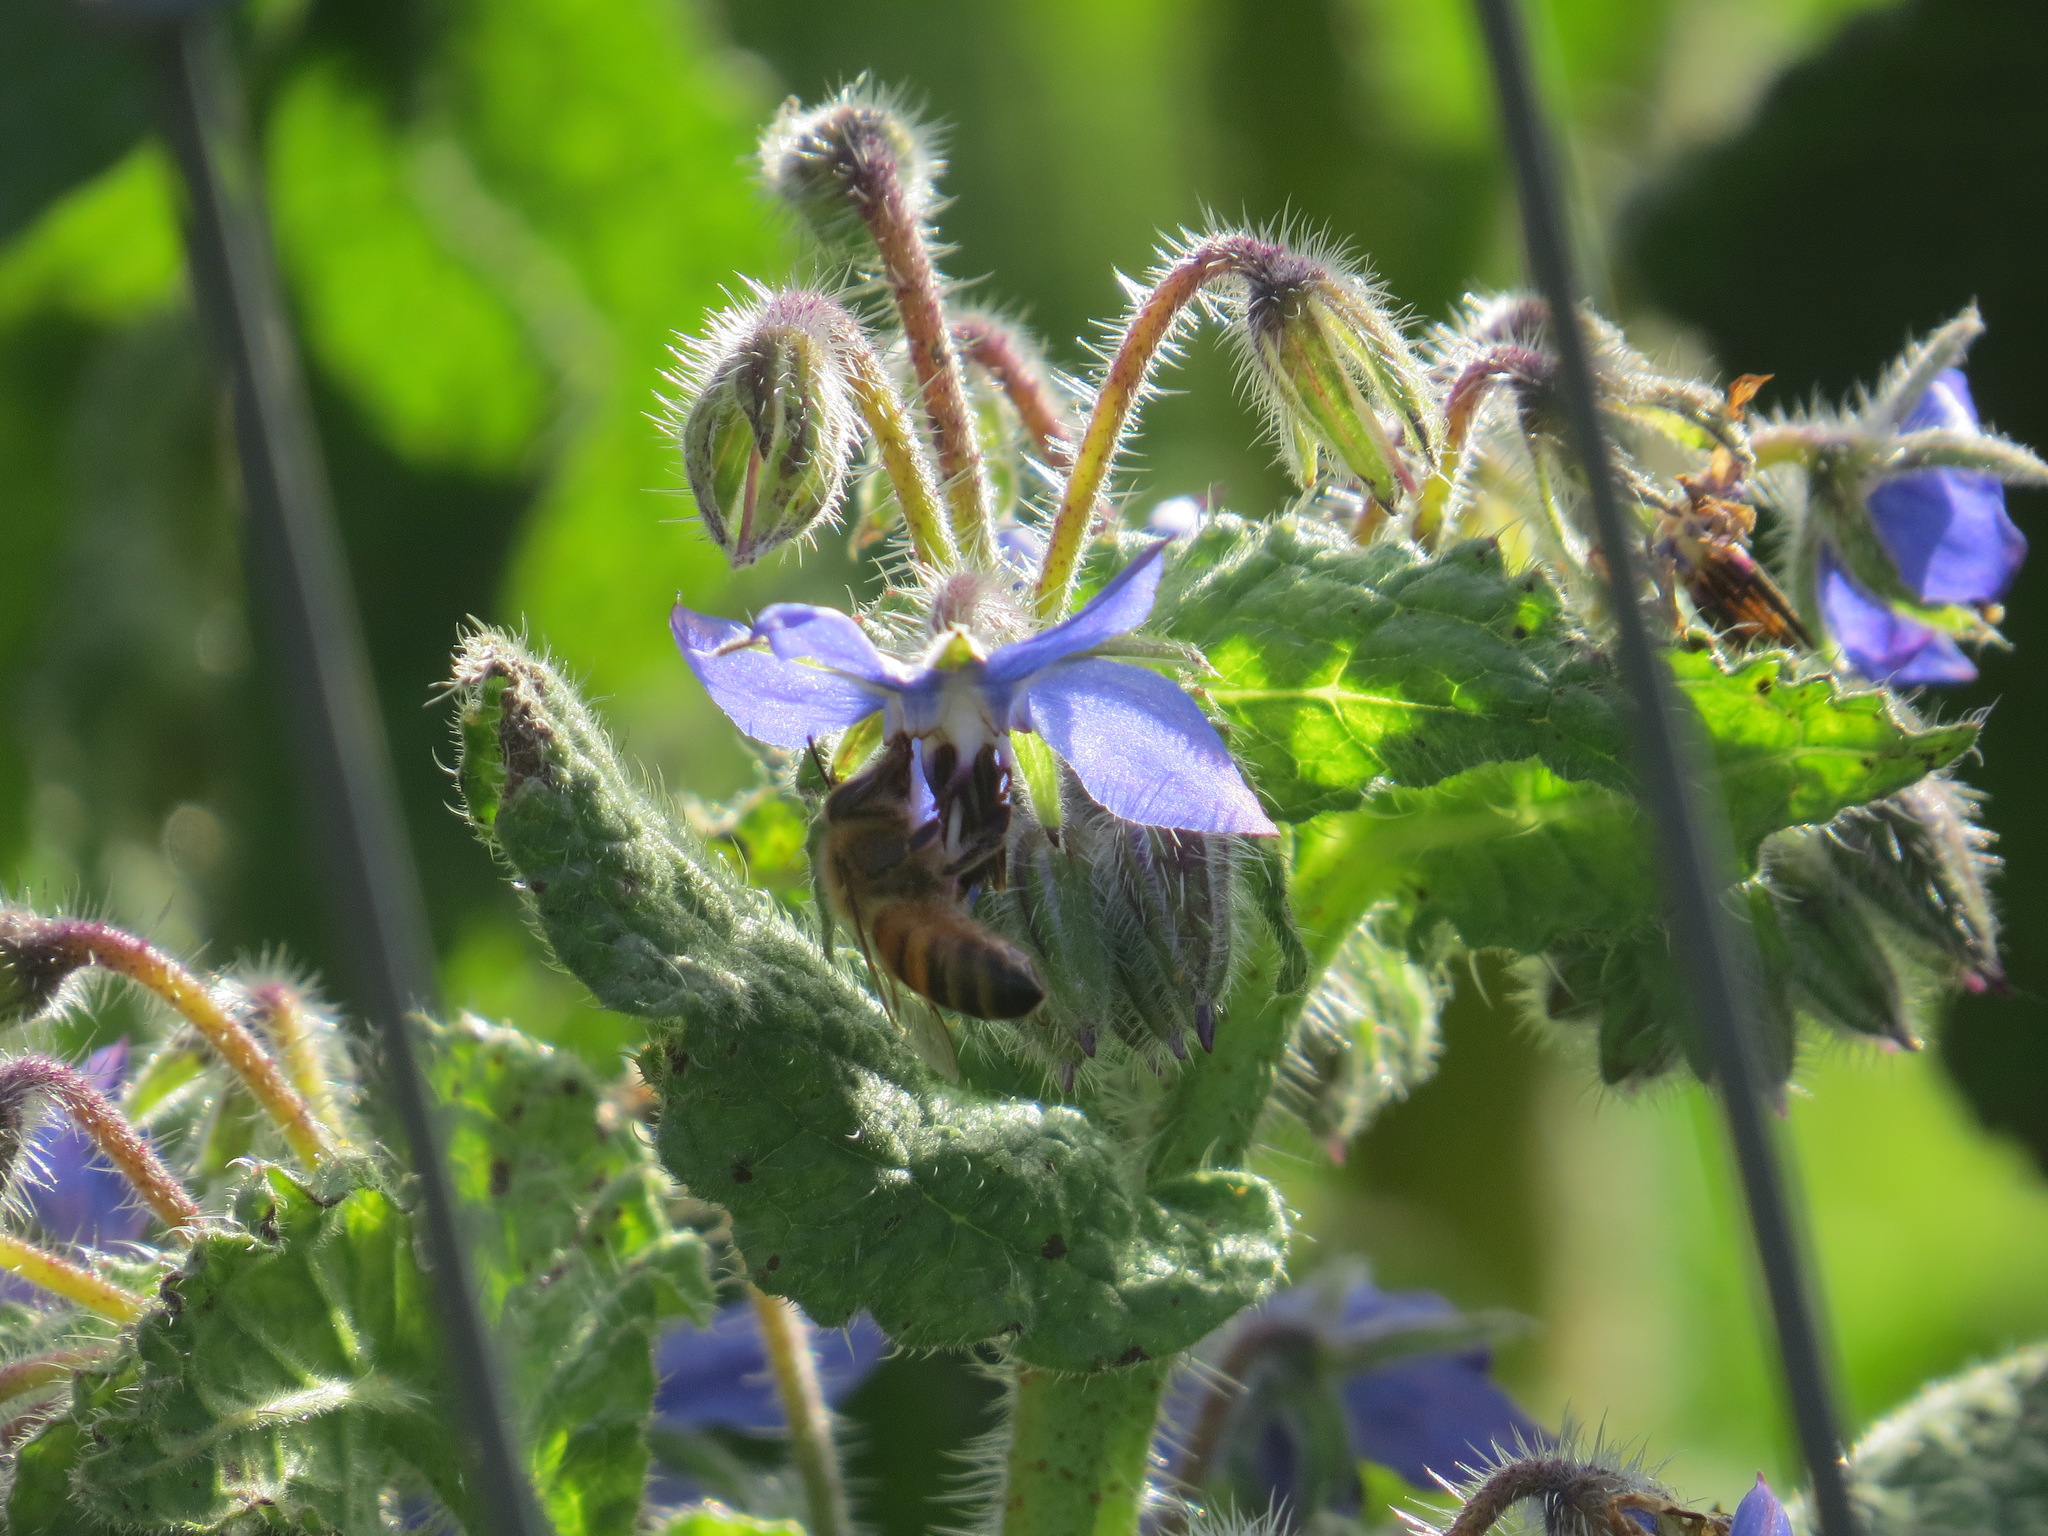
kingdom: Animalia
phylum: Arthropoda
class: Insecta
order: Hymenoptera
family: Apidae
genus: Apis
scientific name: Apis mellifera
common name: Honey bee
